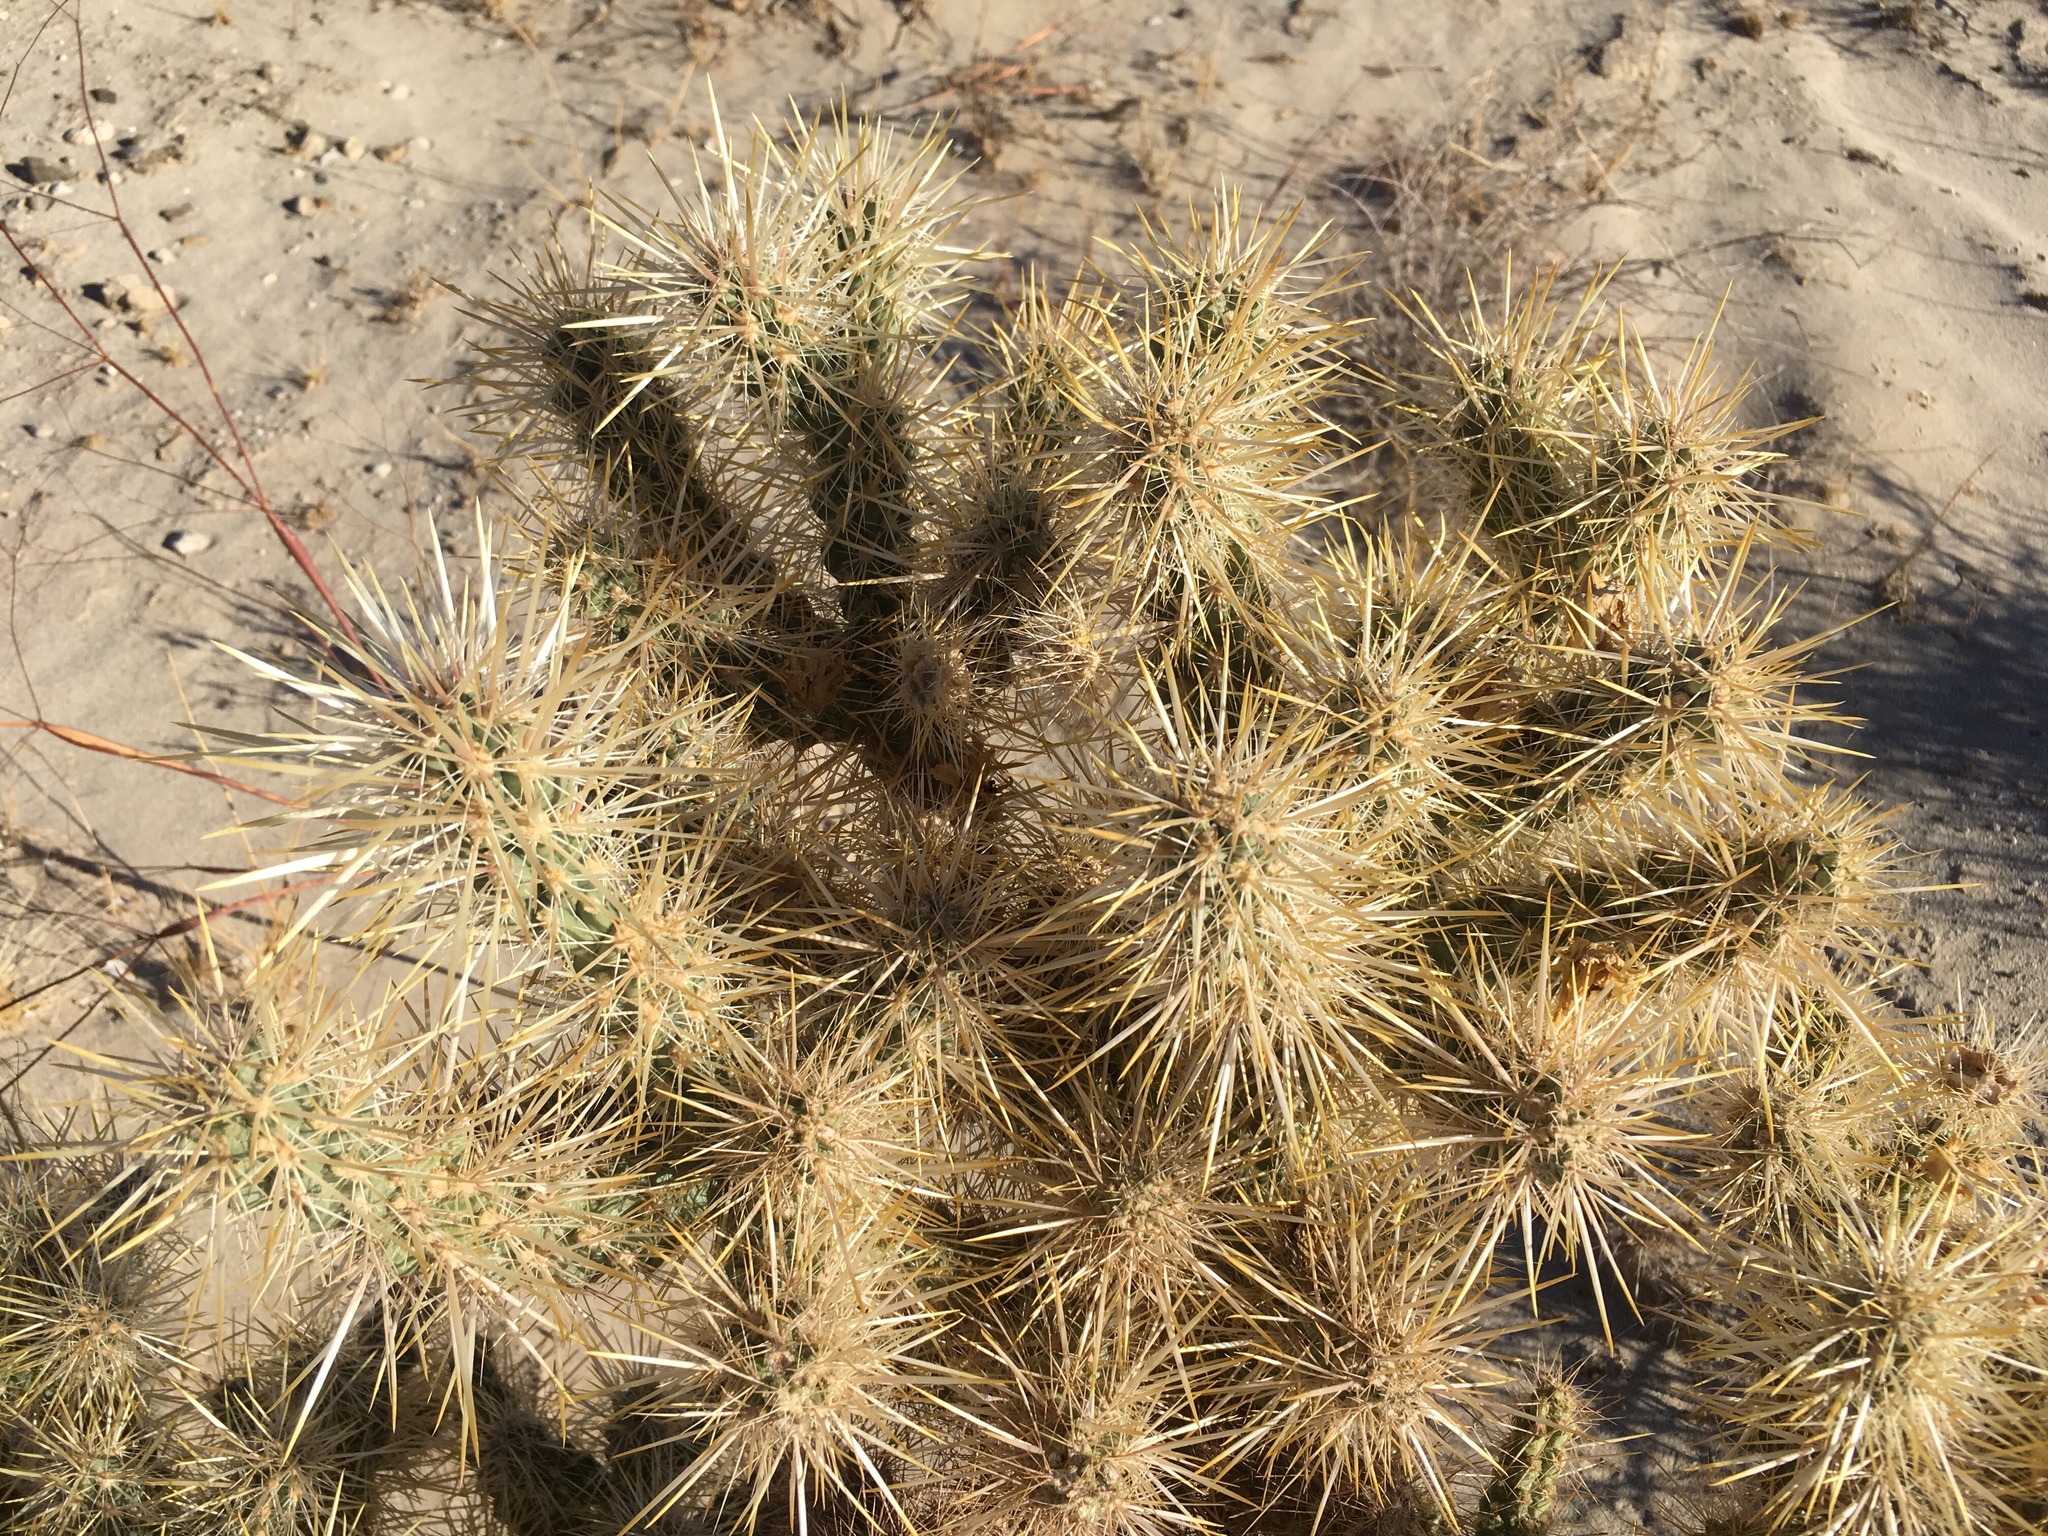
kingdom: Plantae
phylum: Tracheophyta
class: Magnoliopsida
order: Caryophyllales
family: Cactaceae
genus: Cylindropuntia
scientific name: Cylindropuntia echinocarpa
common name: Ground cholla
